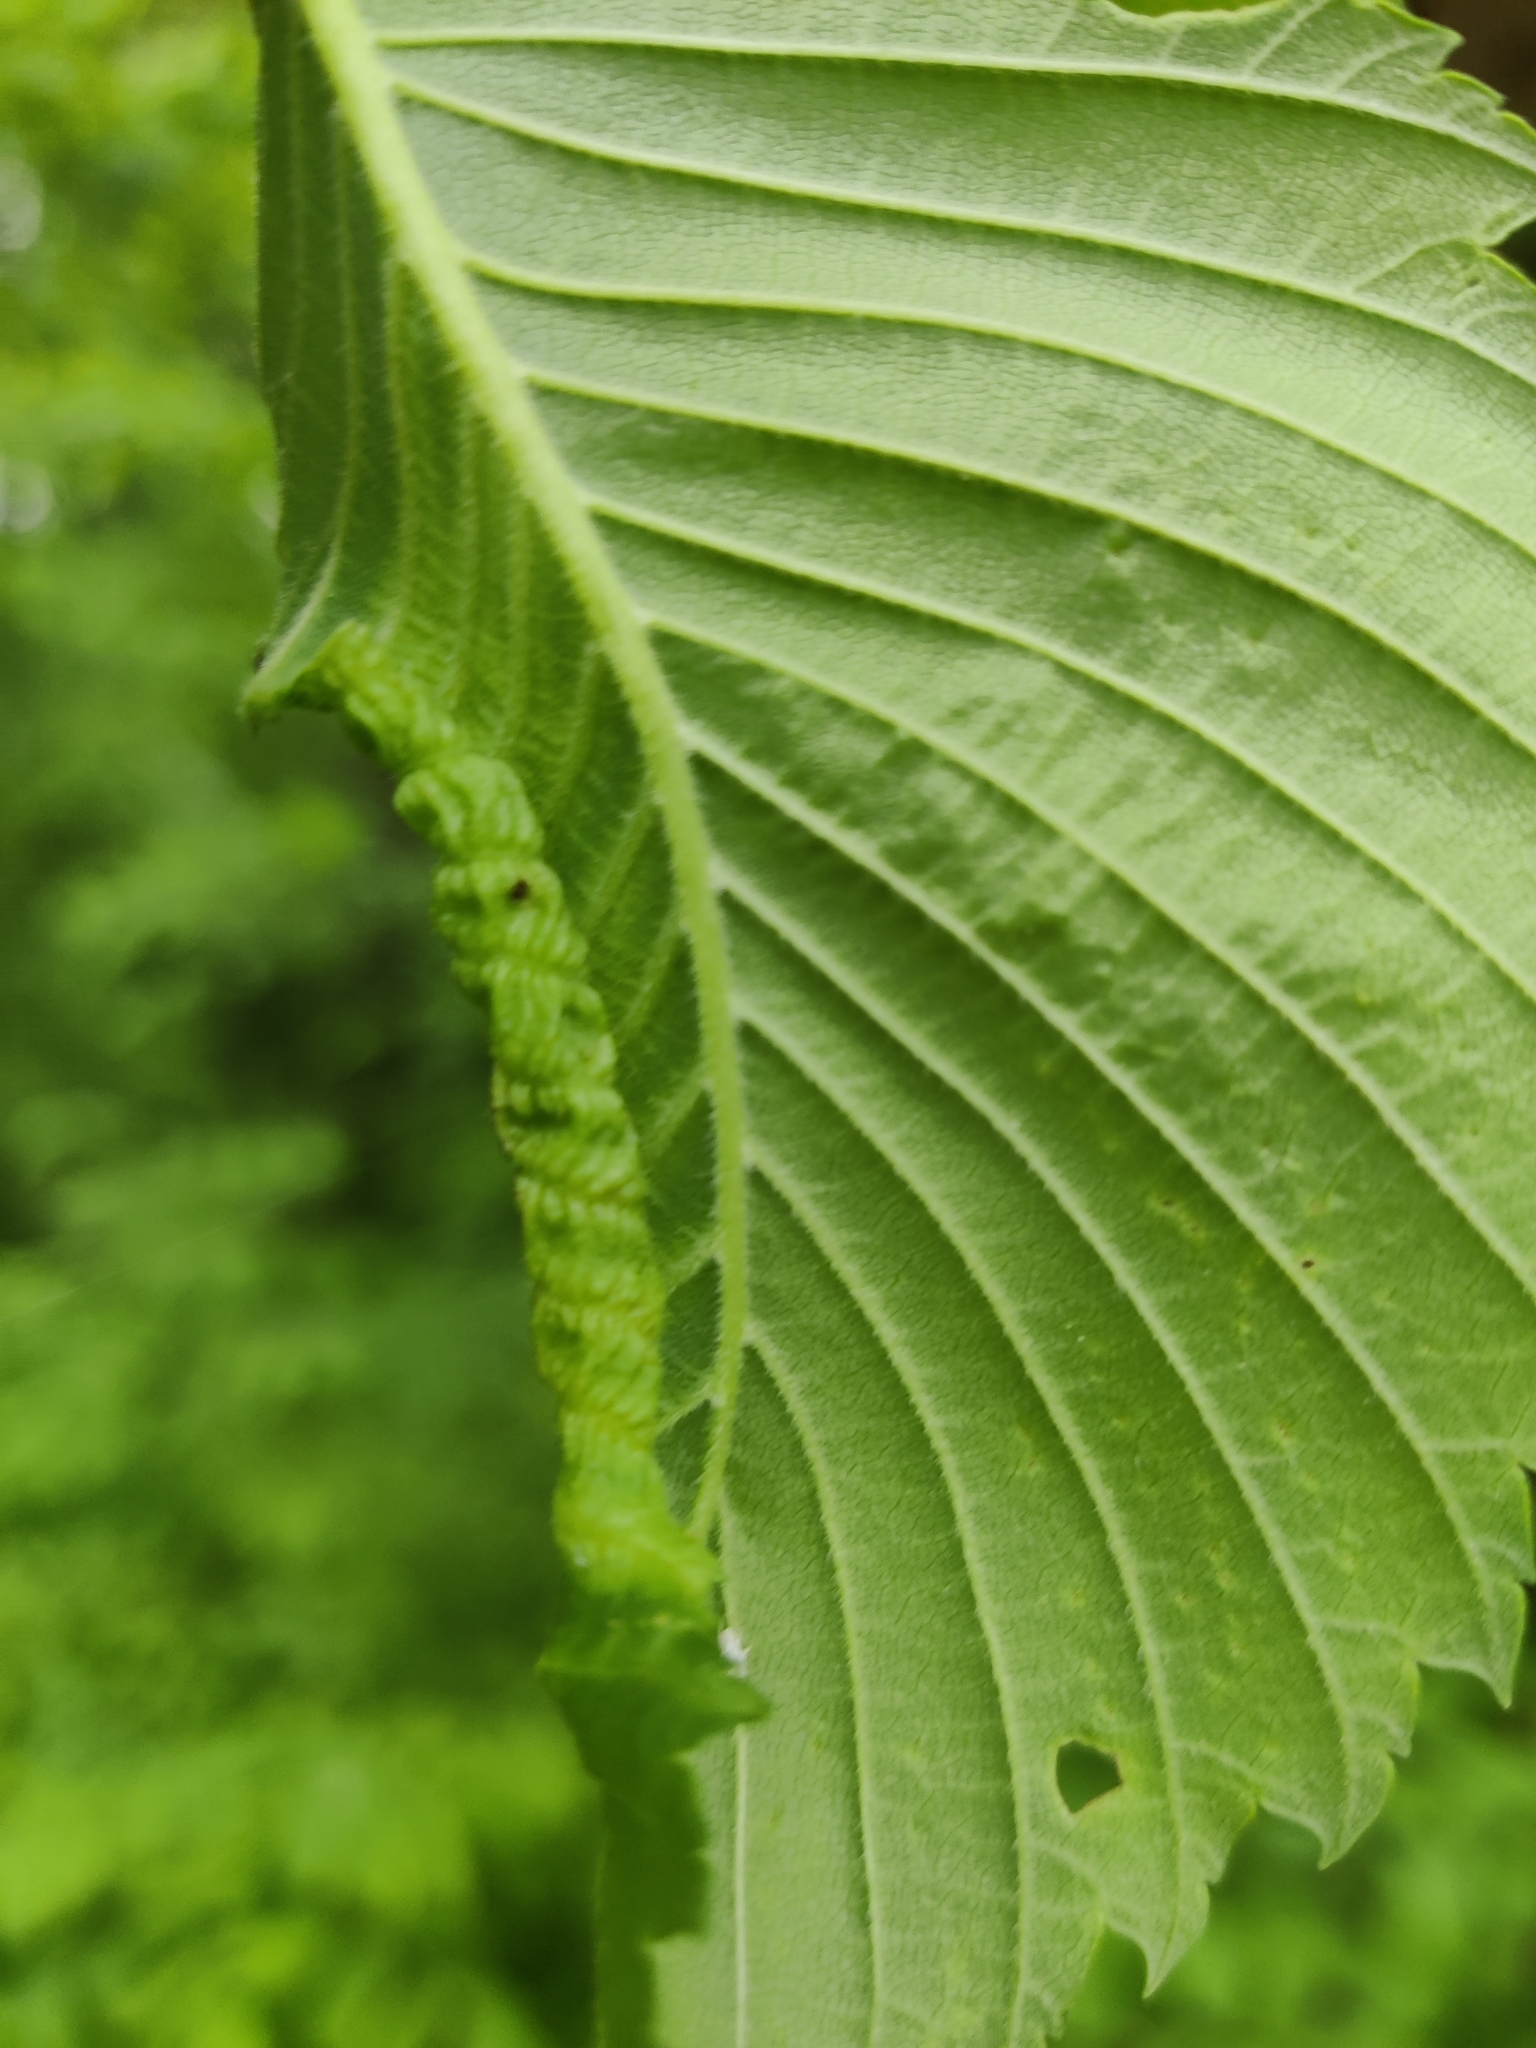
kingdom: Animalia
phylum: Arthropoda
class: Insecta
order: Hemiptera
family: Aphididae
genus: Eriosoma
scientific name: Eriosoma americanum
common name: Woolly elm aphid
